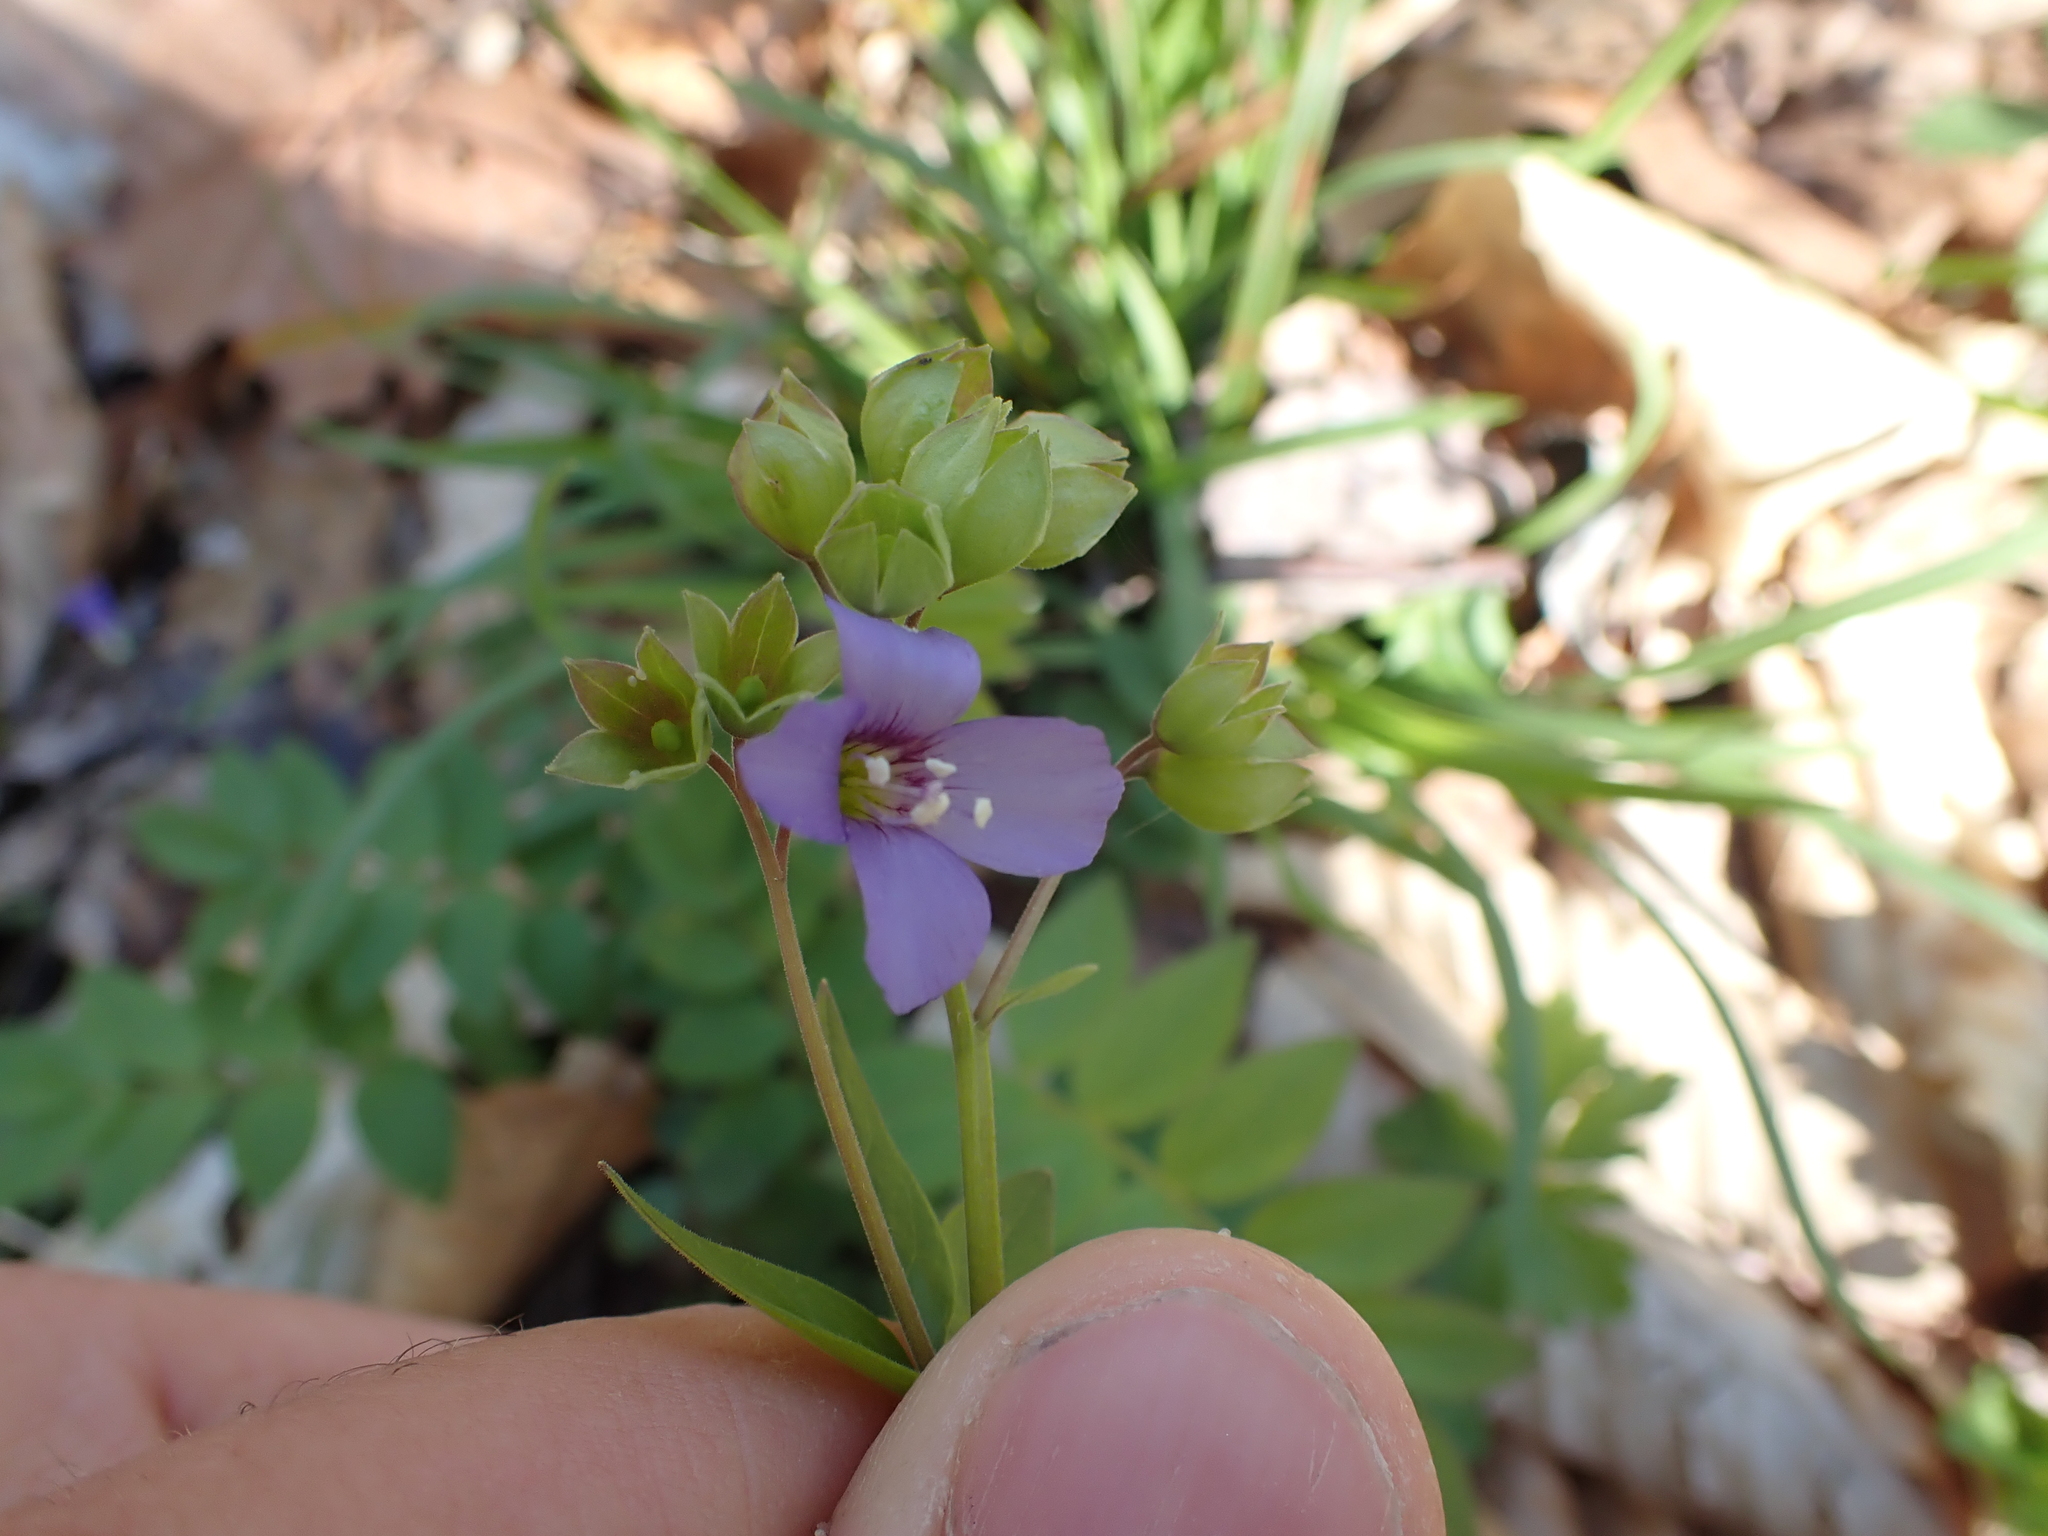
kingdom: Plantae
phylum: Tracheophyta
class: Magnoliopsida
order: Ericales
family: Polemoniaceae
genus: Polemonium
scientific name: Polemonium reptans
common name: Creeping jacob's-ladder
